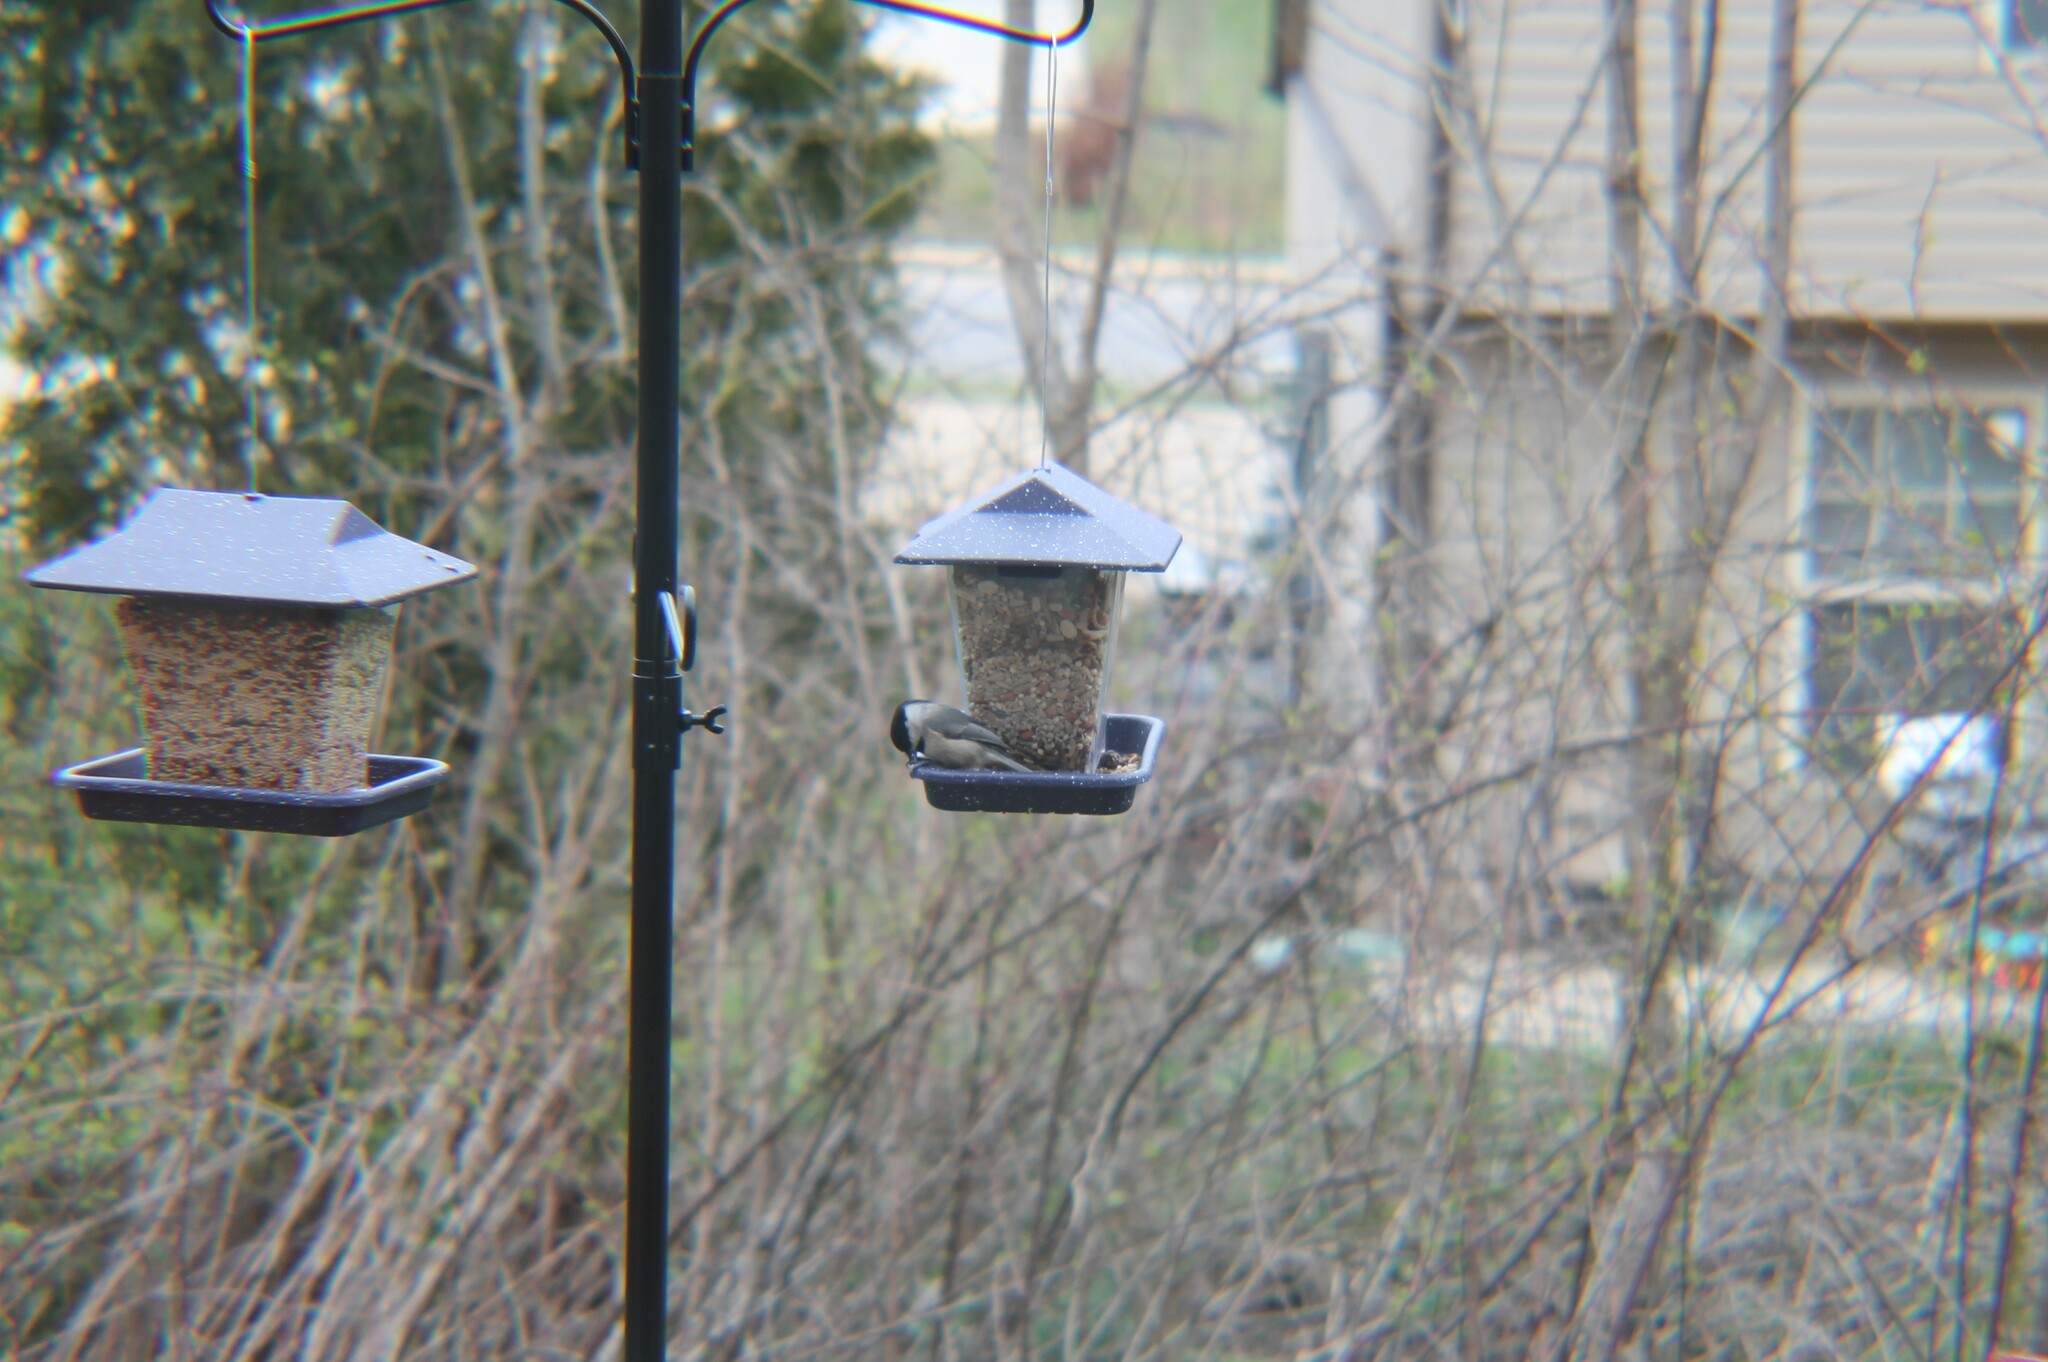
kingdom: Animalia
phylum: Chordata
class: Aves
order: Passeriformes
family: Paridae
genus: Poecile
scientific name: Poecile carolinensis
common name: Carolina chickadee
